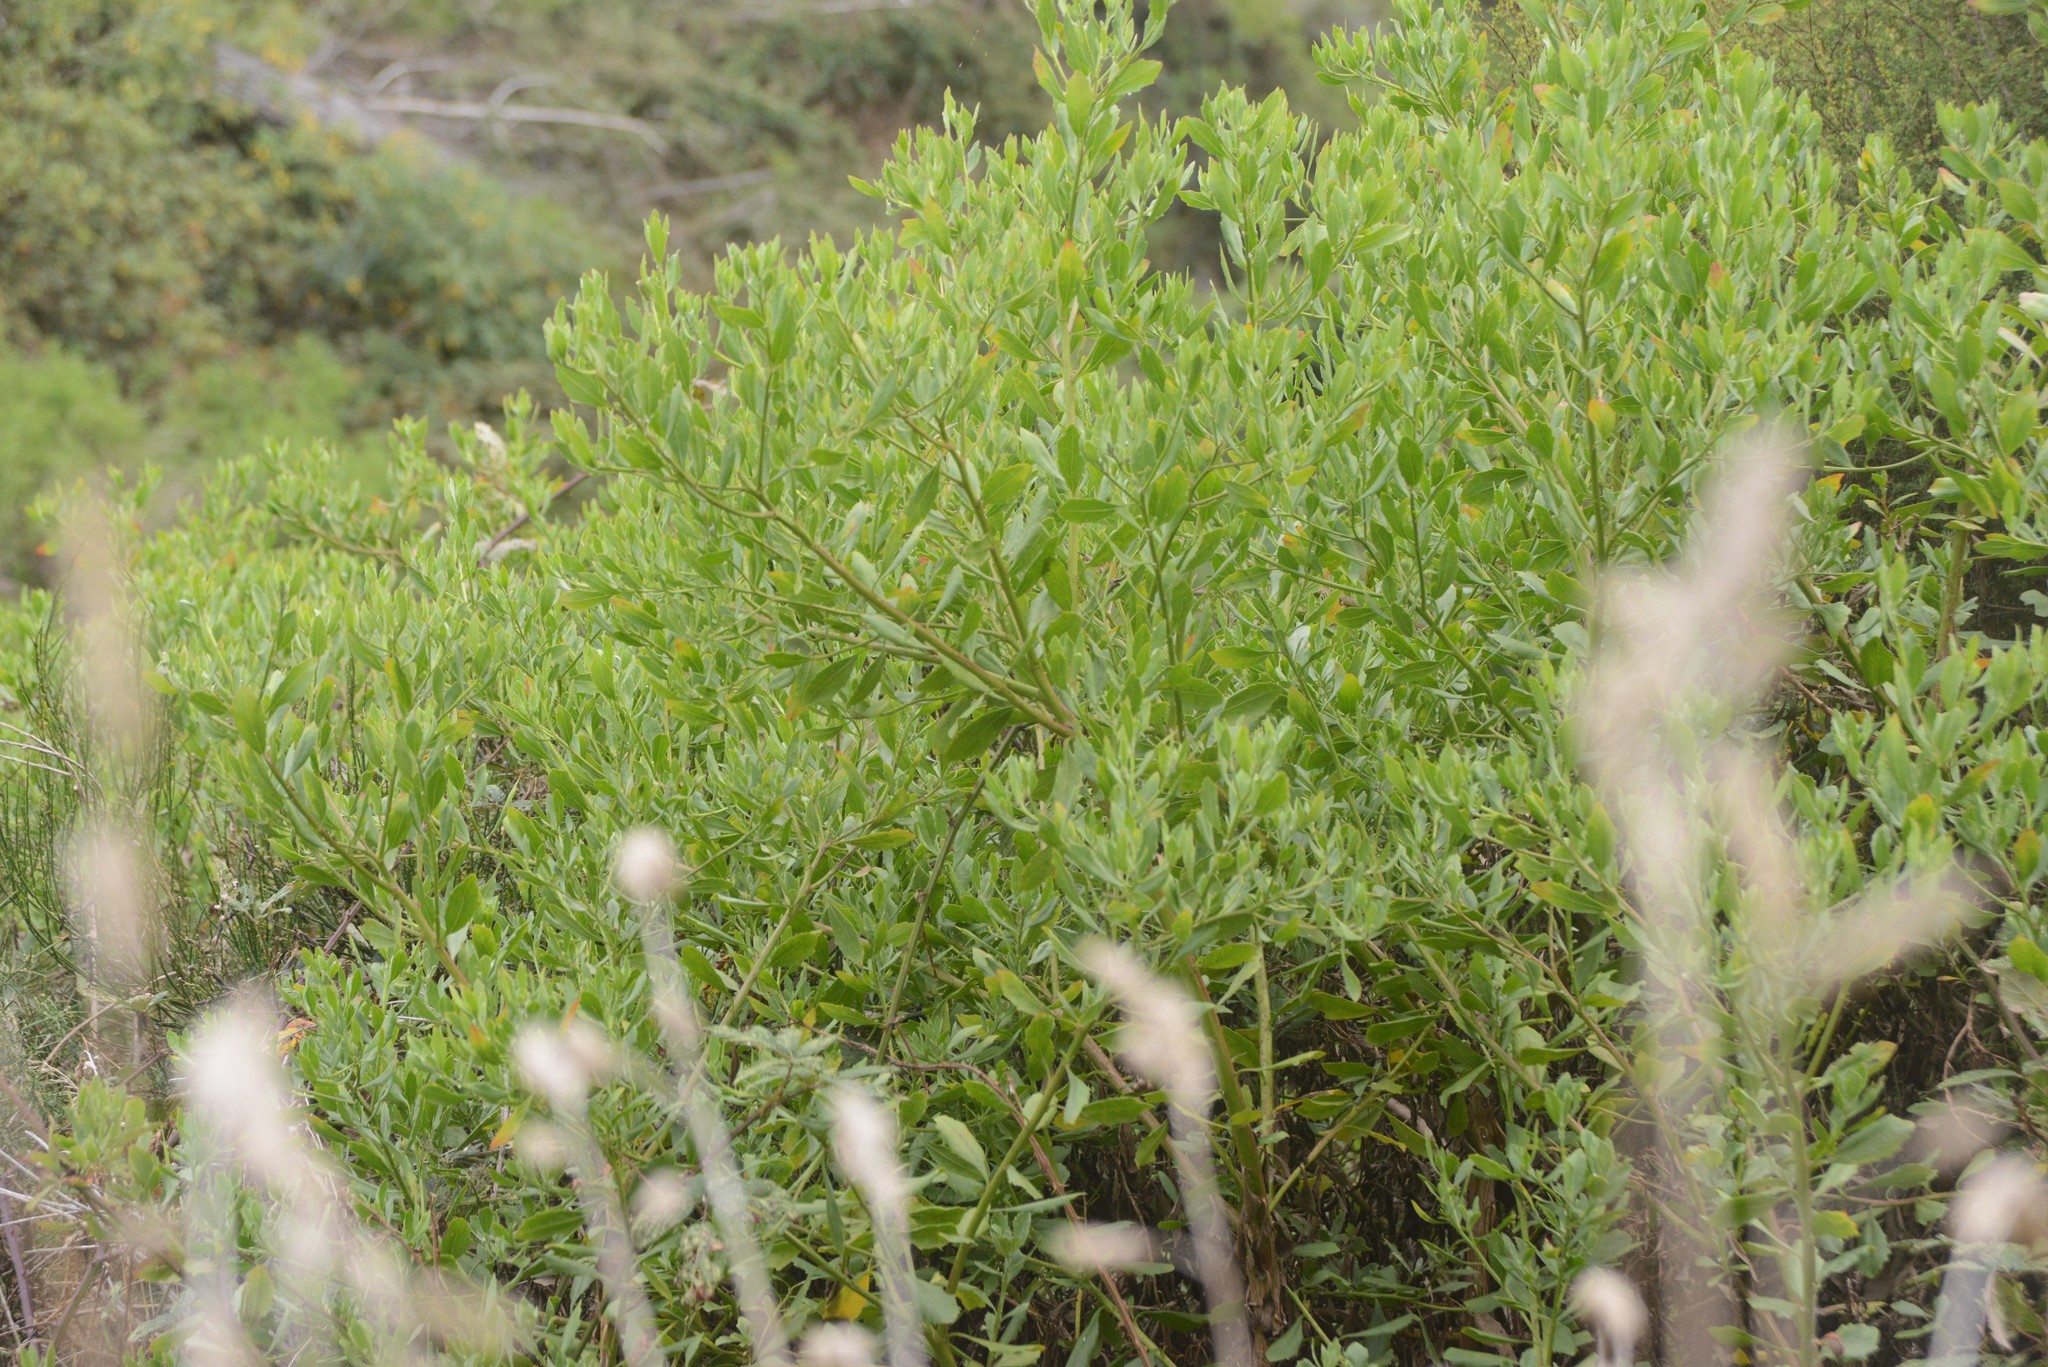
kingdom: Plantae
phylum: Tracheophyta
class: Magnoliopsida
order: Asterales
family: Asteraceae
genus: Osteospermum
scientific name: Osteospermum moniliferum
